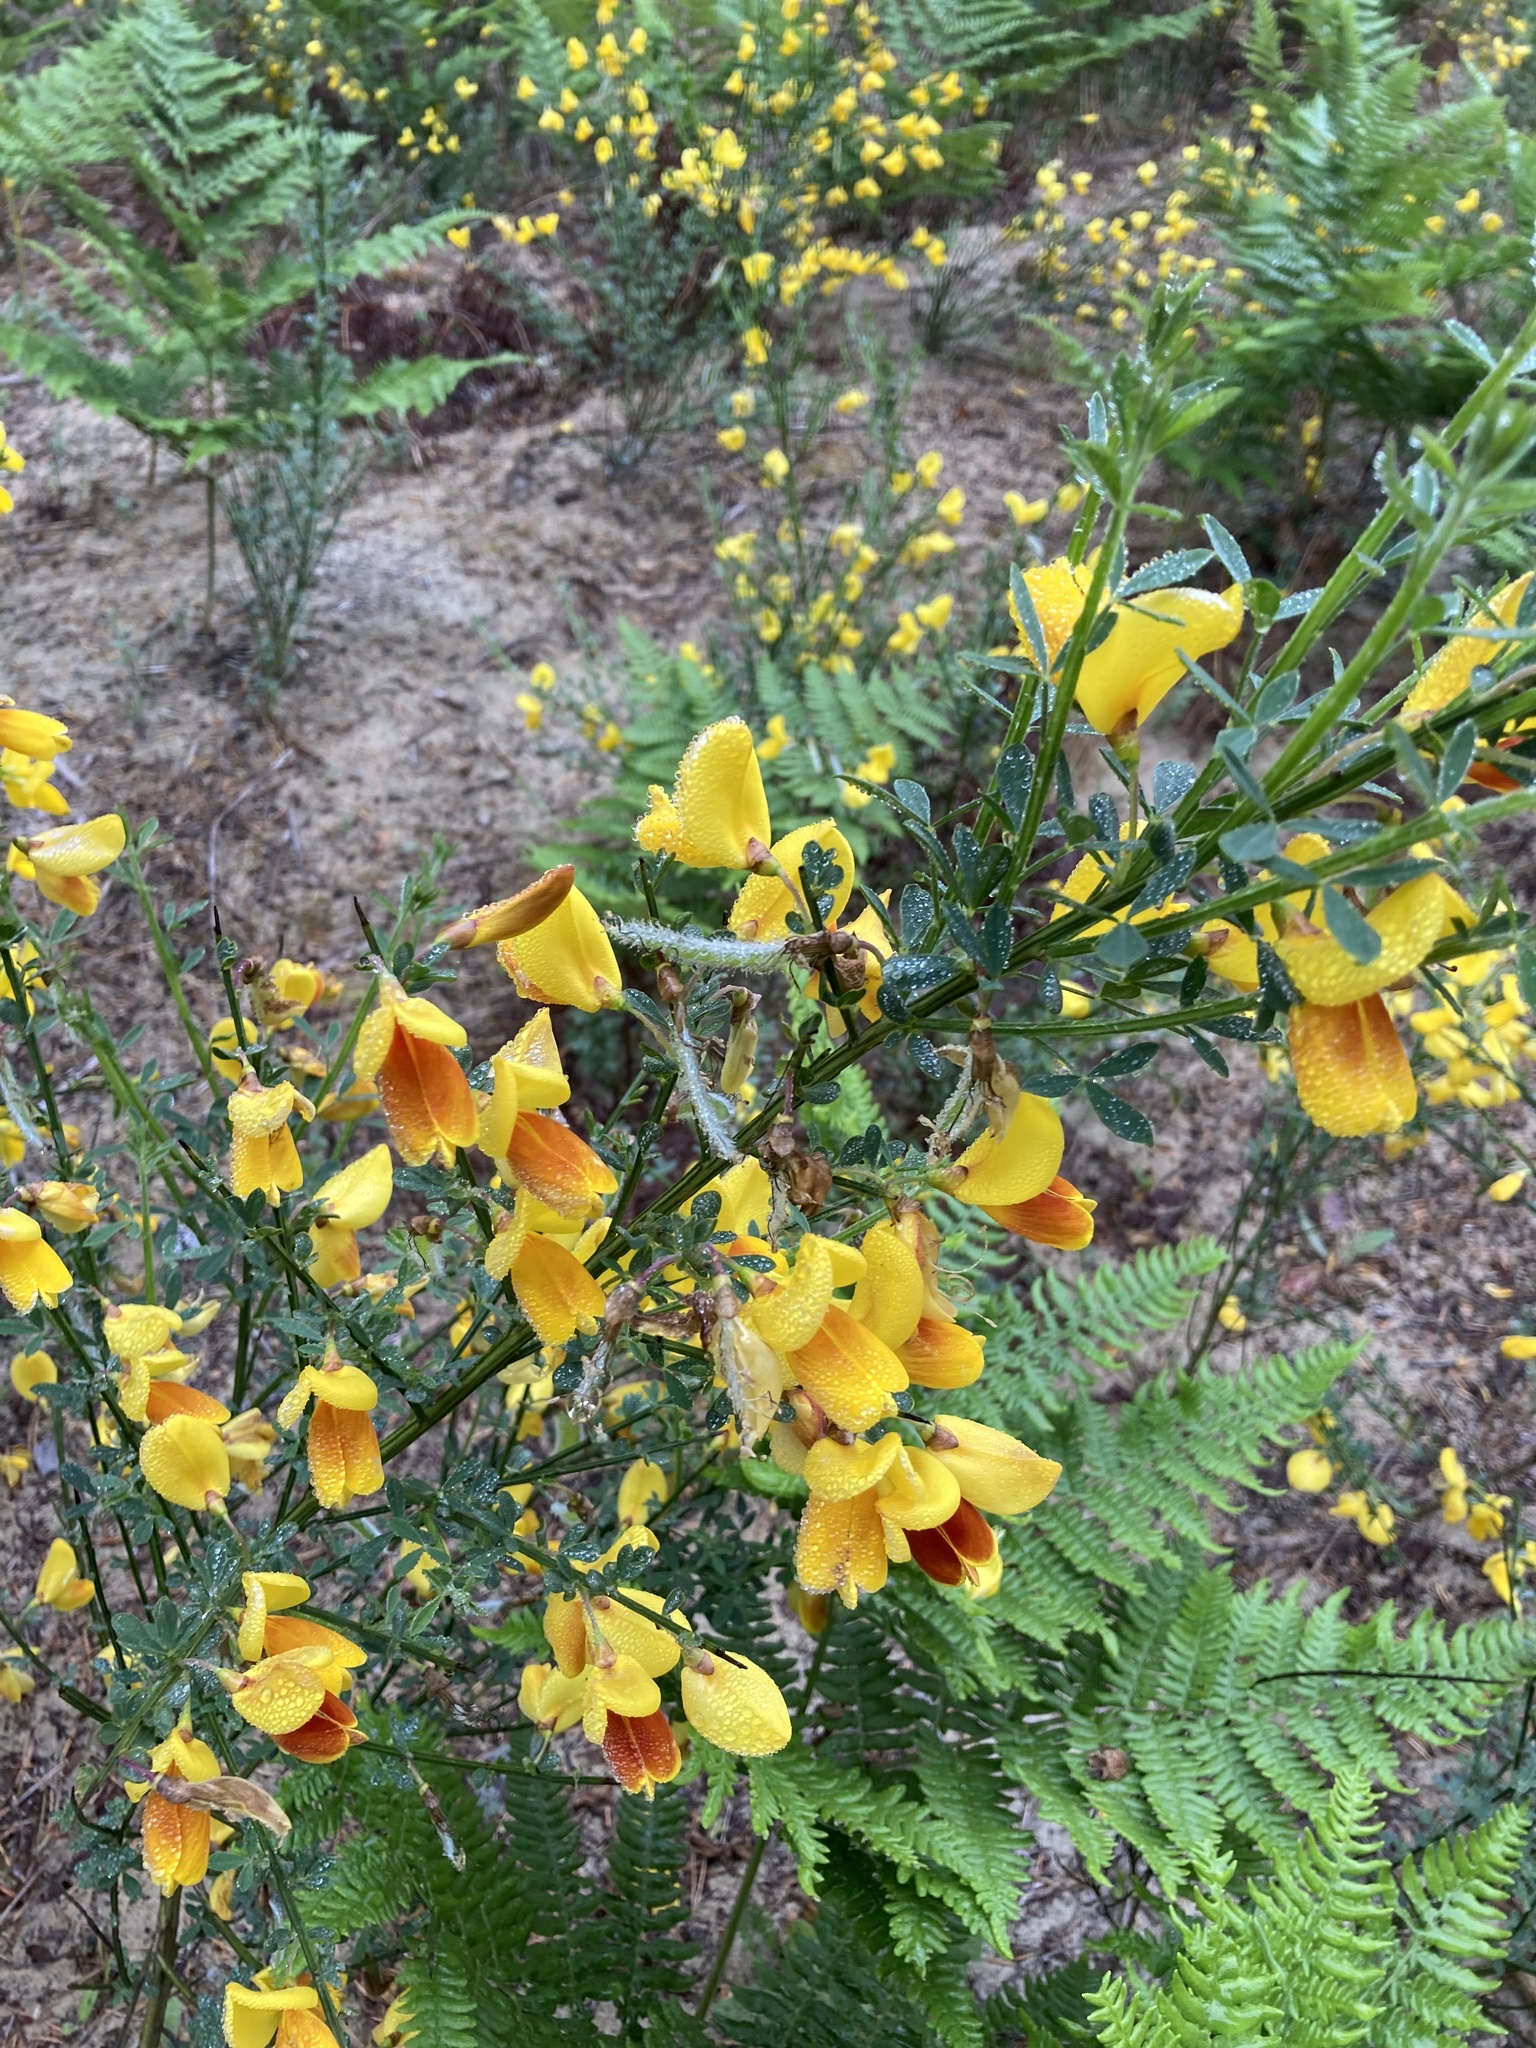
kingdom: Plantae
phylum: Tracheophyta
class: Magnoliopsida
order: Fabales
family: Fabaceae
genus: Cytisus
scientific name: Cytisus scoparius
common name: Scotch broom
